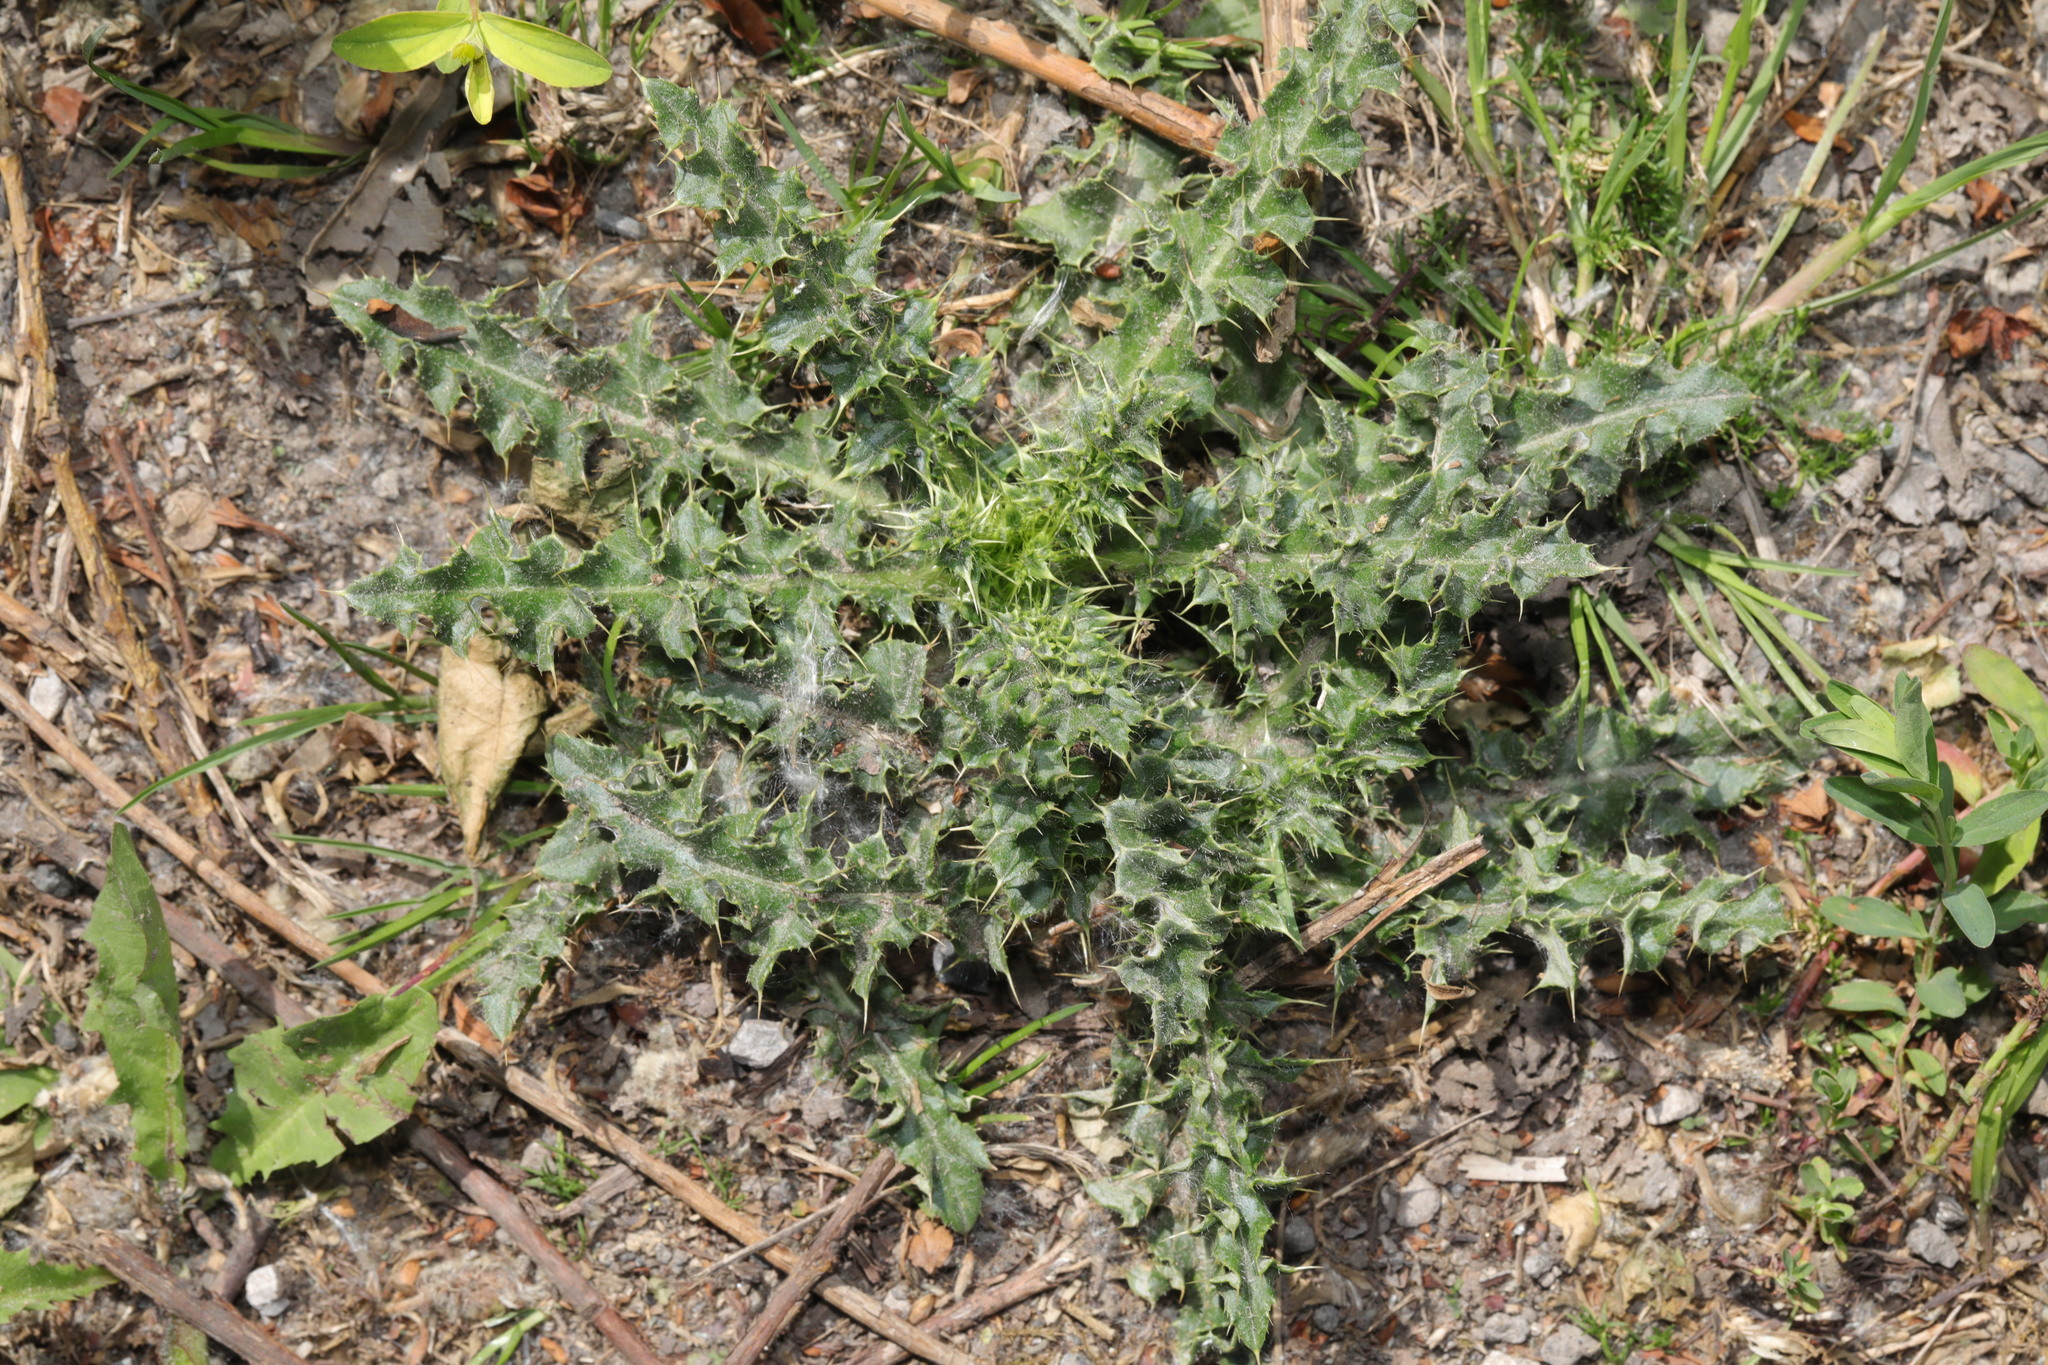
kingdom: Plantae
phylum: Tracheophyta
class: Magnoliopsida
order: Asterales
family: Asteraceae
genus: Cirsium
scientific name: Cirsium arvense
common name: Creeping thistle
